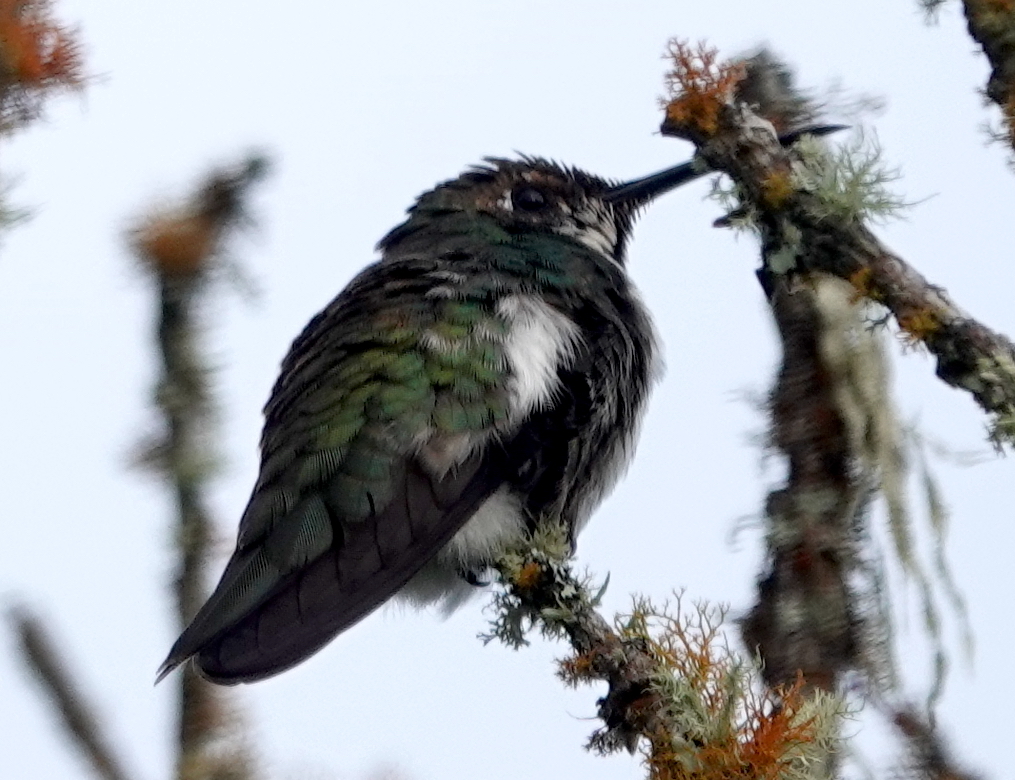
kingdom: Animalia
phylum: Chordata
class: Aves
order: Apodiformes
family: Trochilidae
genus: Anthracothorax
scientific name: Anthracothorax nigricollis
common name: Black-throated mango
